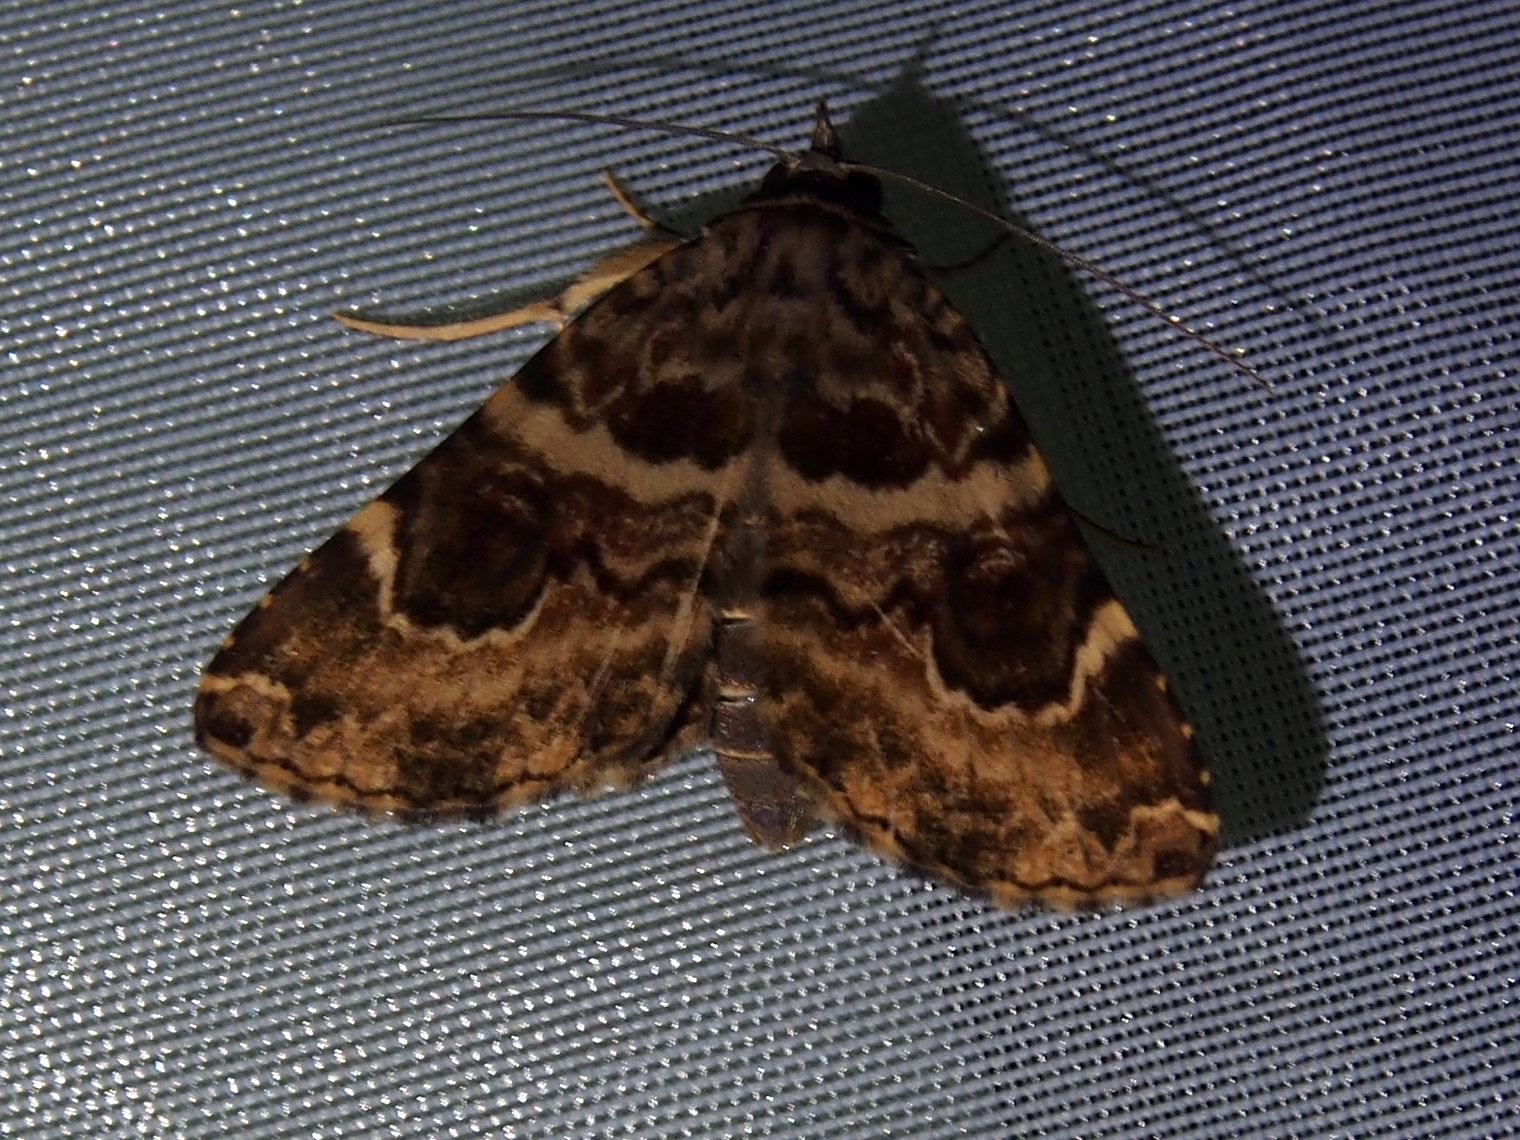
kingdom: Animalia
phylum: Arthropoda
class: Insecta
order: Lepidoptera
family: Erebidae
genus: Acolasis
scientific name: Acolasis tanais
